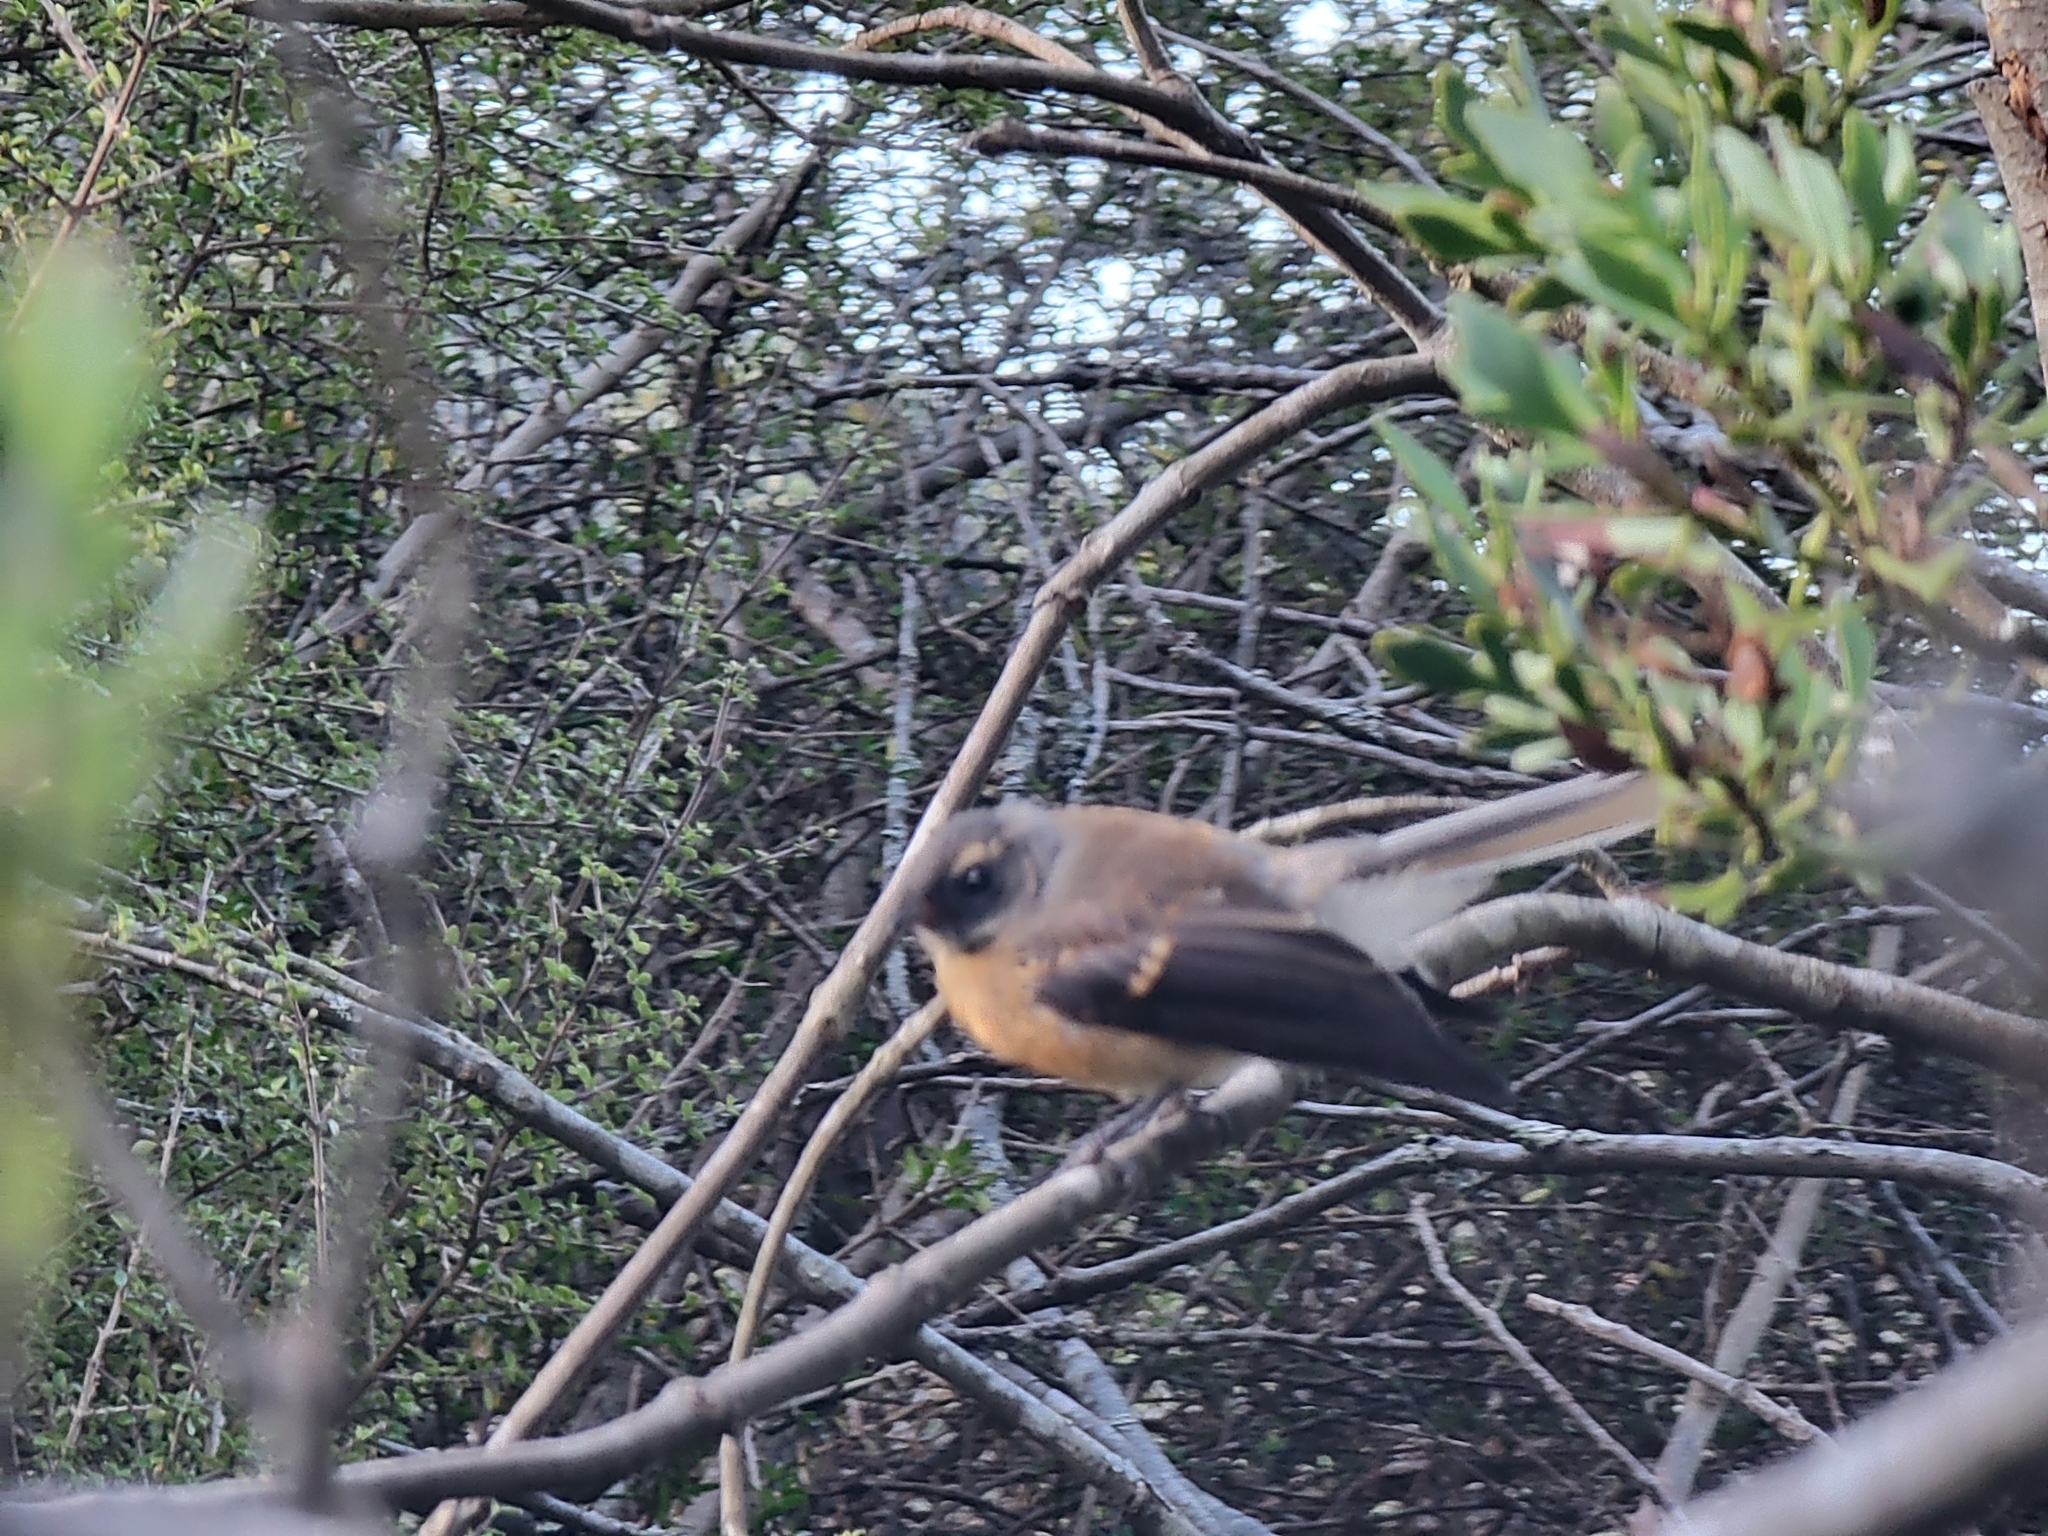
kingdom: Animalia
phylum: Chordata
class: Aves
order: Passeriformes
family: Rhipiduridae
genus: Rhipidura
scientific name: Rhipidura fuliginosa
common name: New zealand fantail
